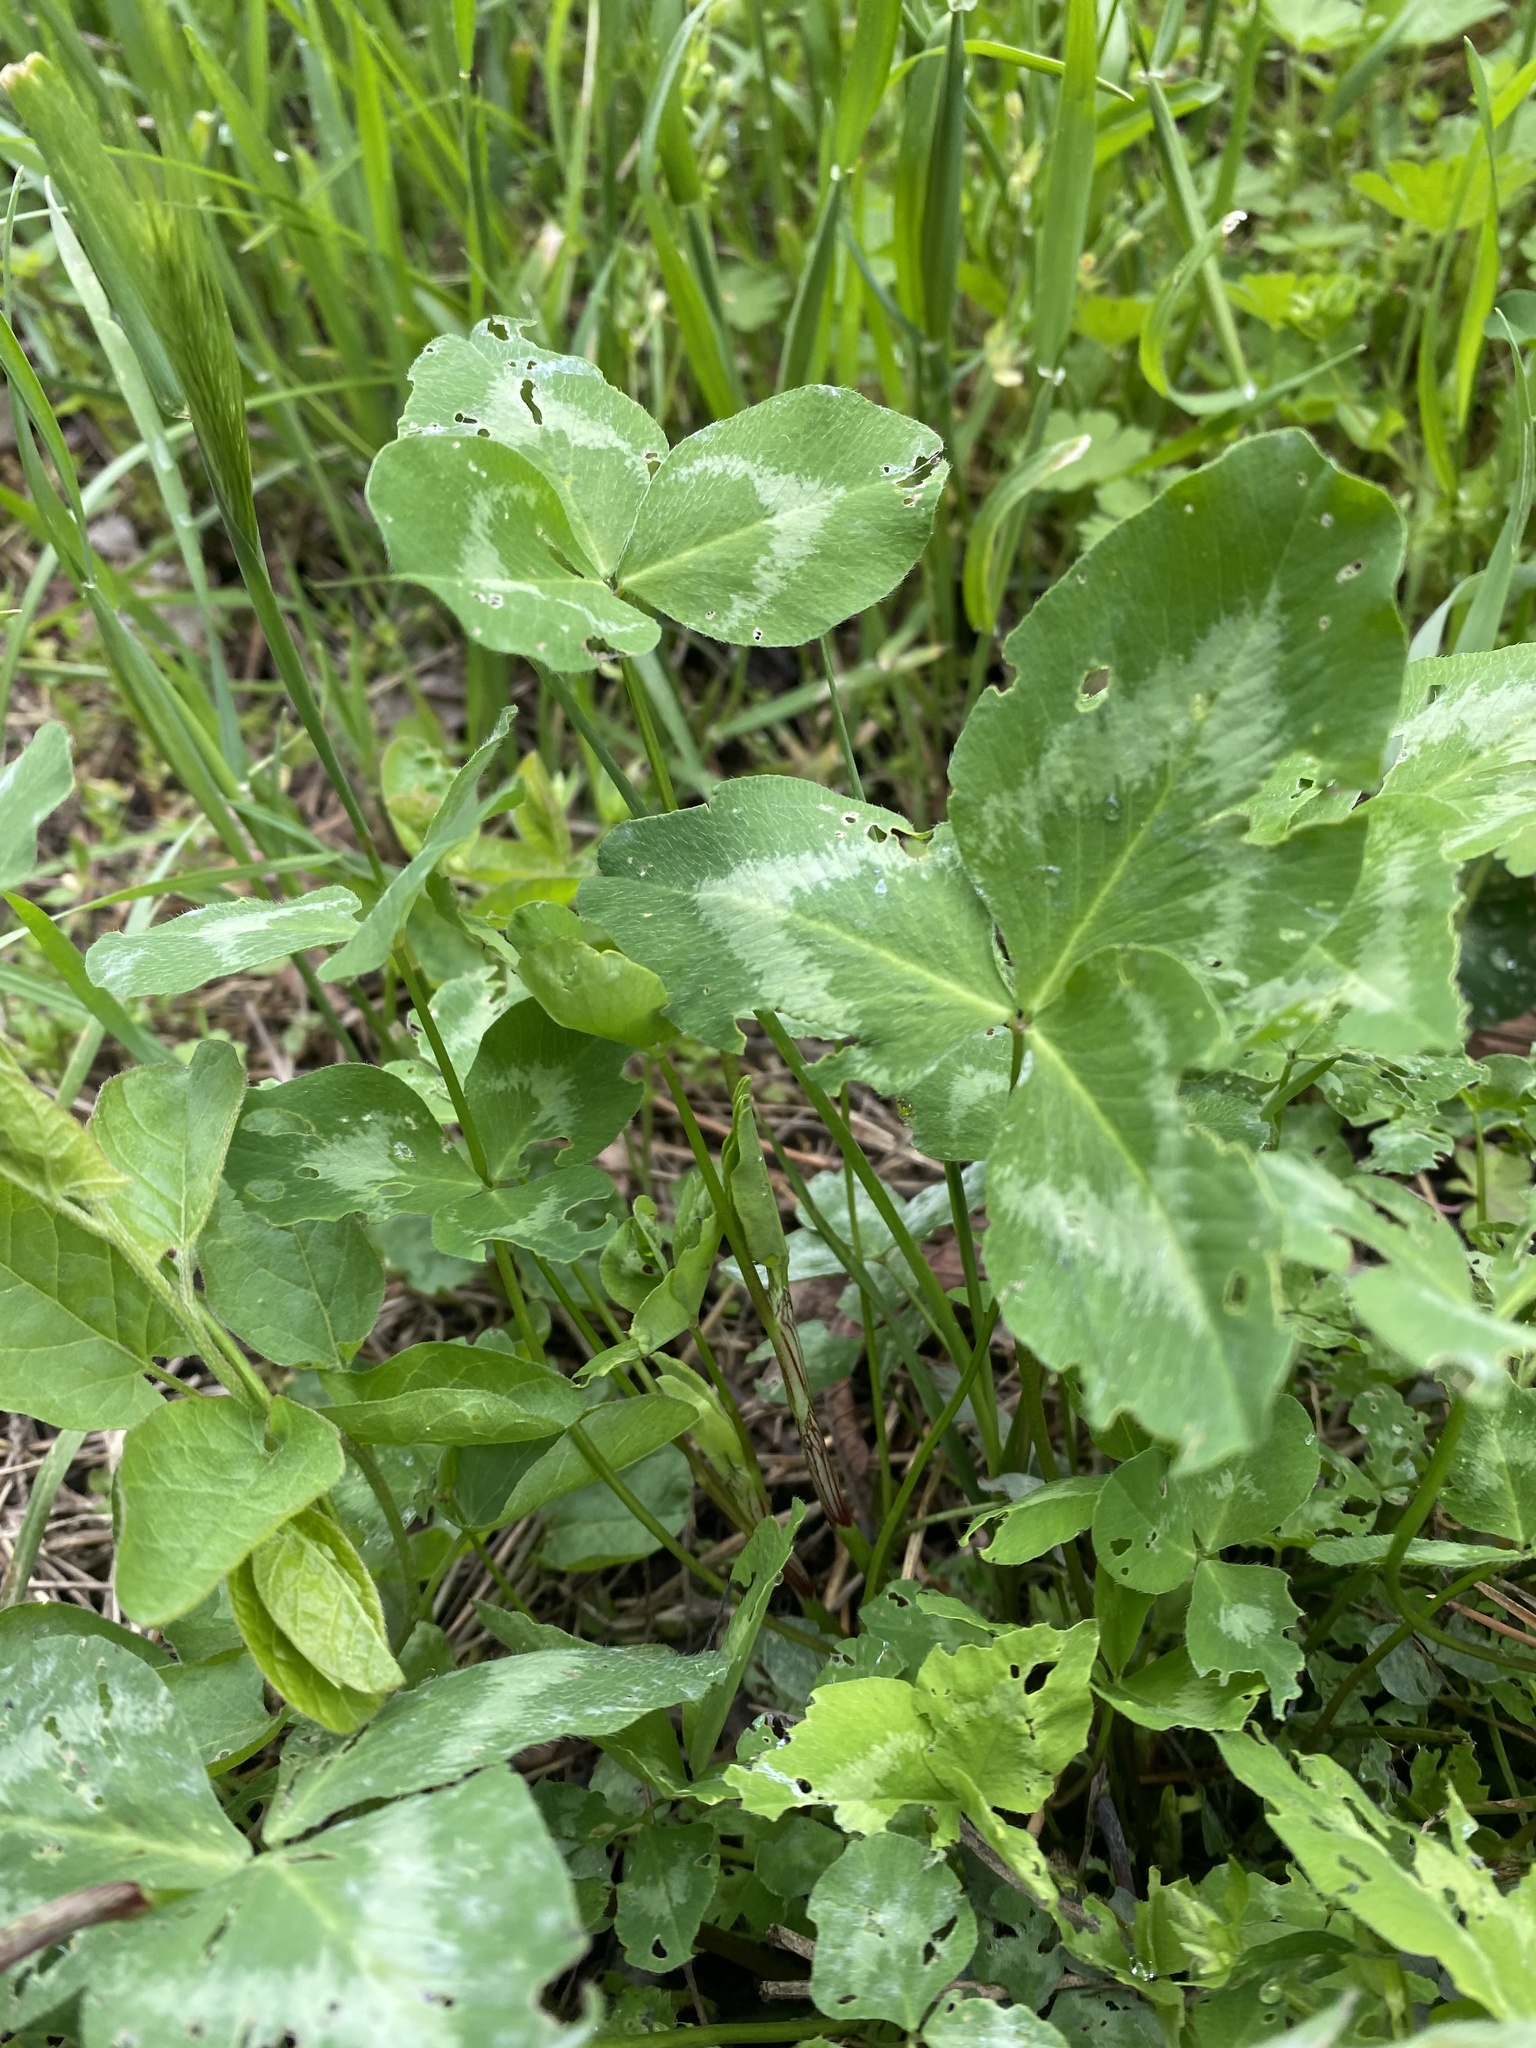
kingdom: Plantae
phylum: Tracheophyta
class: Magnoliopsida
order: Fabales
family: Fabaceae
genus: Trifolium
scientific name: Trifolium pratense
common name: Red clover
